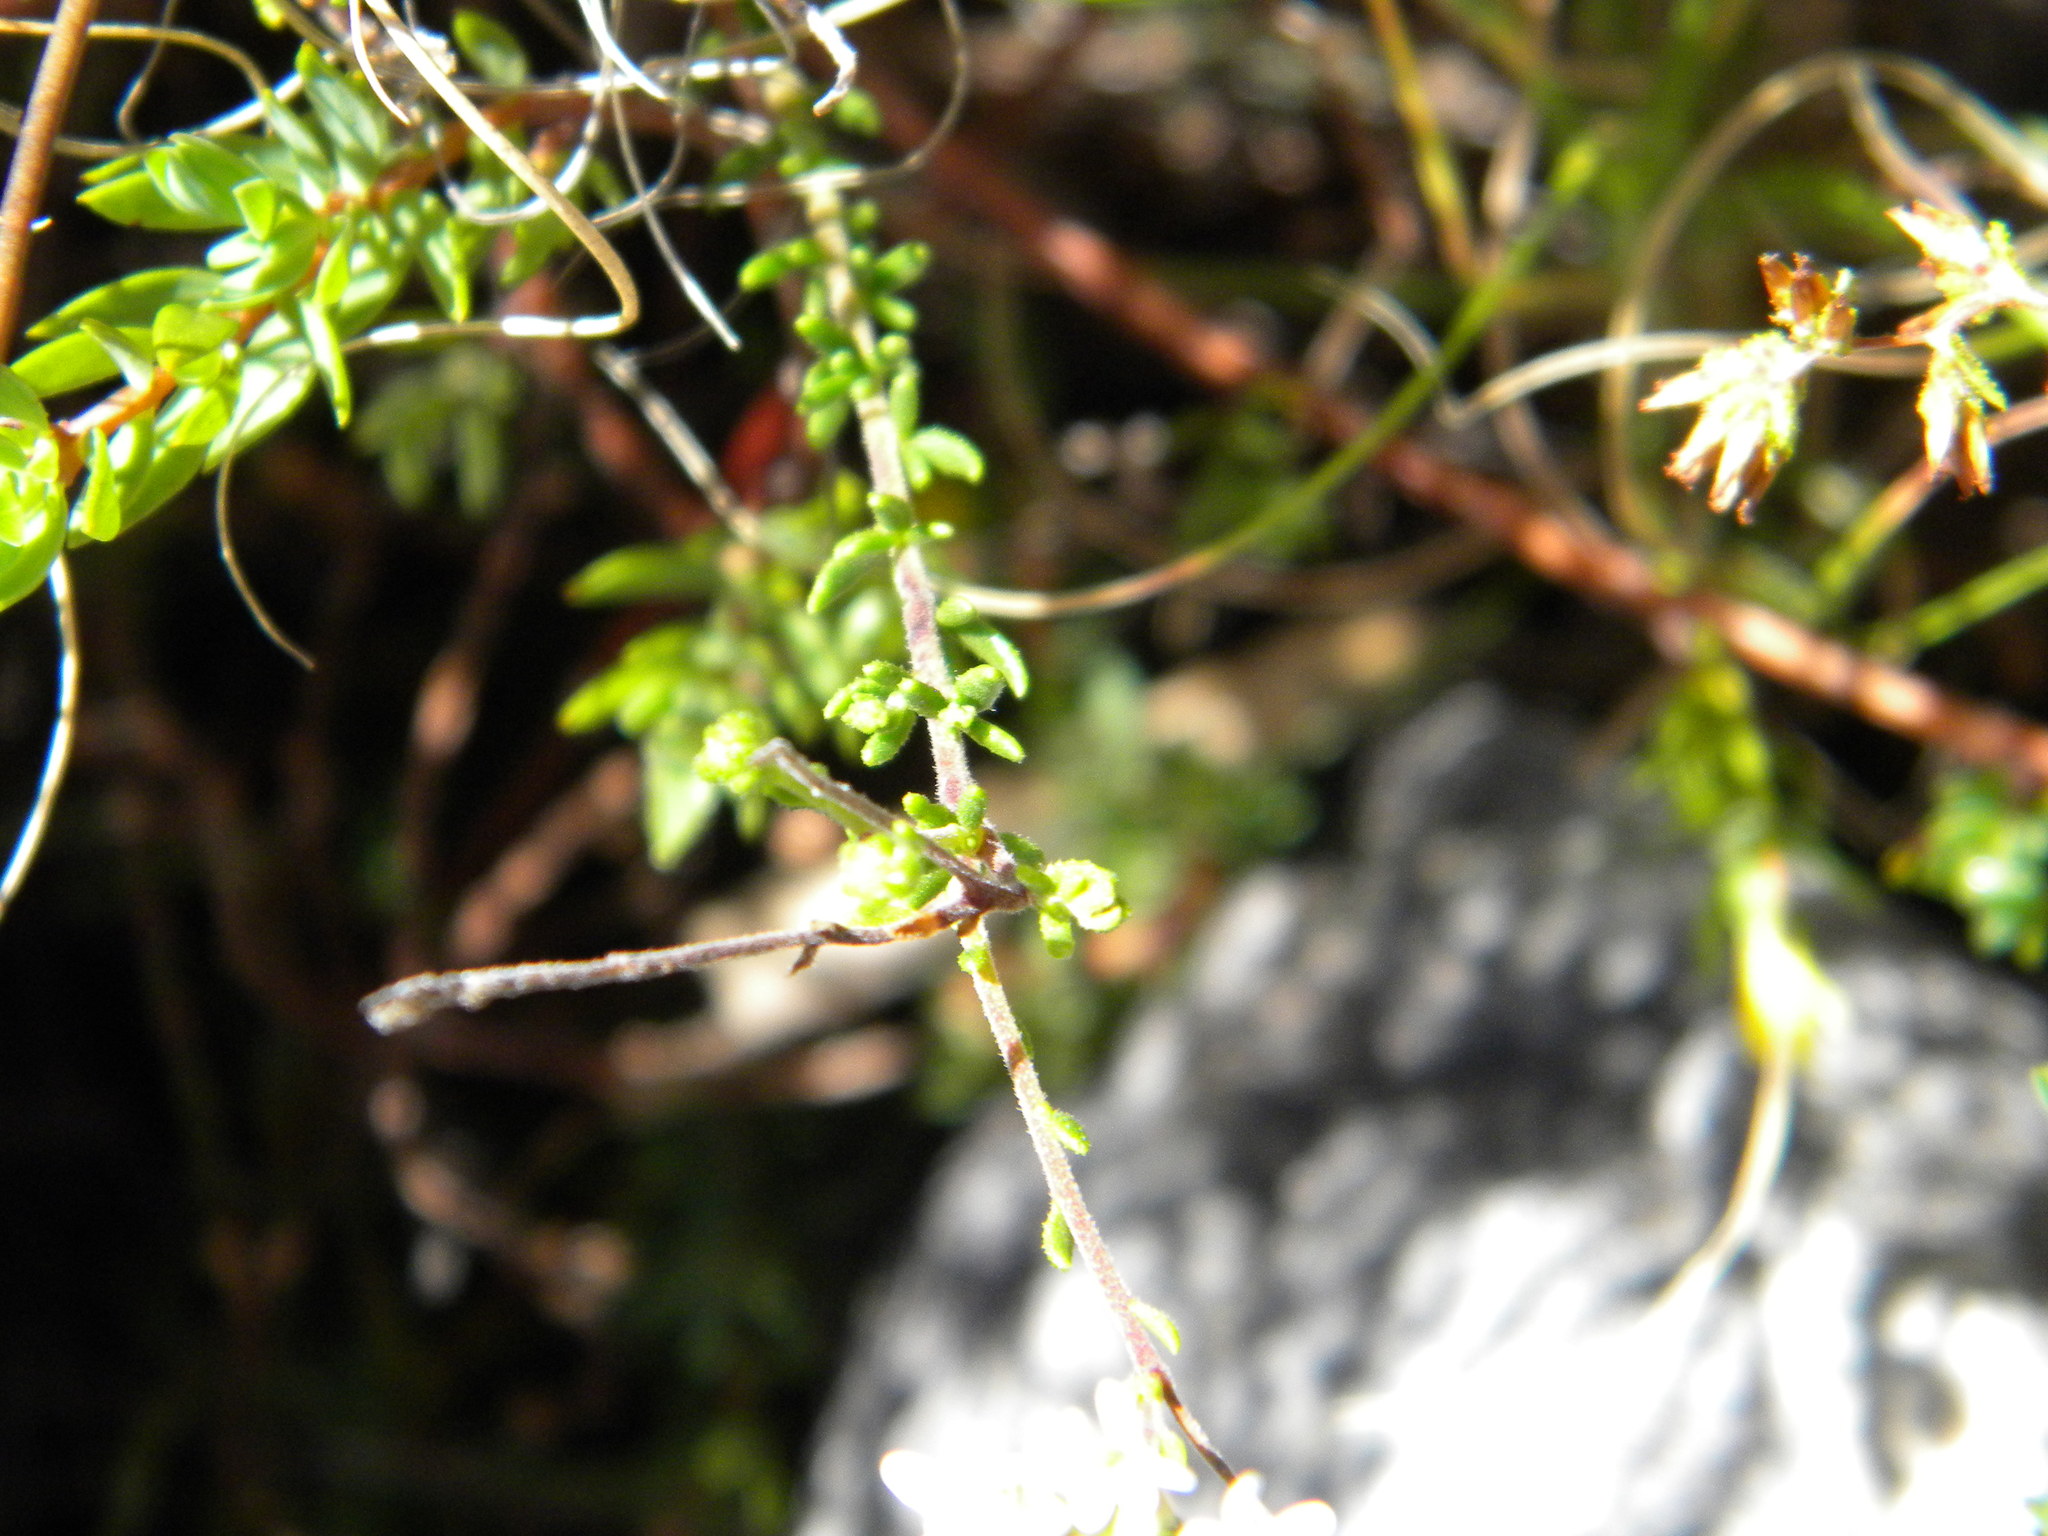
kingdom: Plantae
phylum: Tracheophyta
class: Magnoliopsida
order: Lamiales
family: Scrophulariaceae
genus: Selago
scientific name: Selago levynsiae
